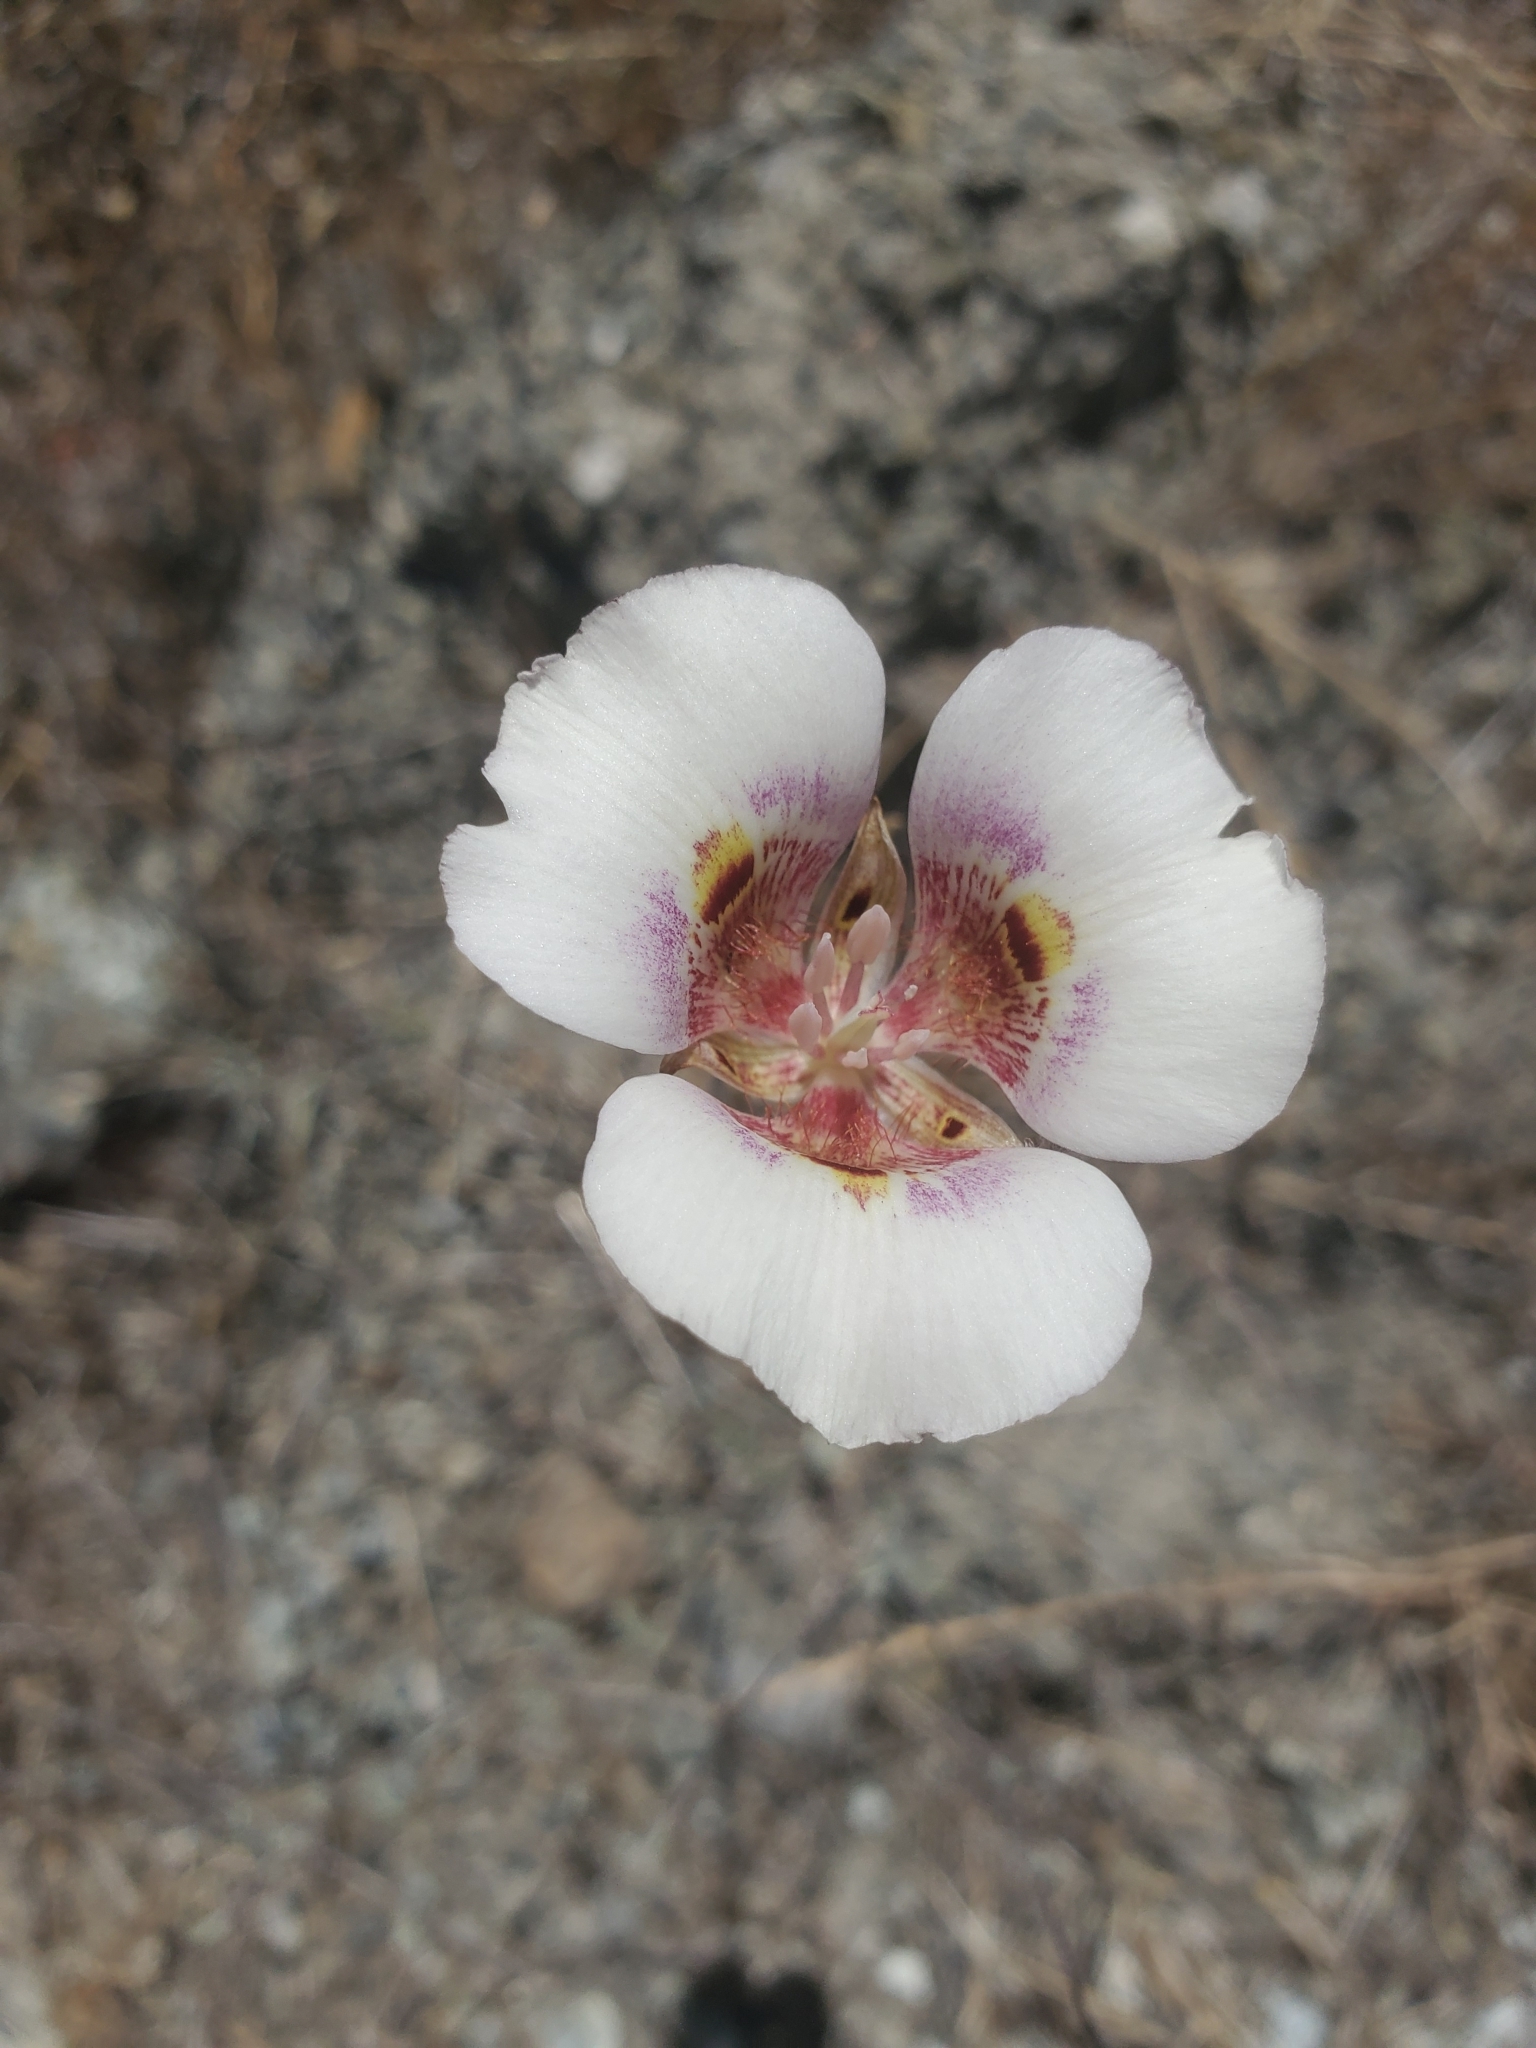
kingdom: Plantae
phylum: Tracheophyta
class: Liliopsida
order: Liliales
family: Liliaceae
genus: Calochortus
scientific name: Calochortus argillosus
